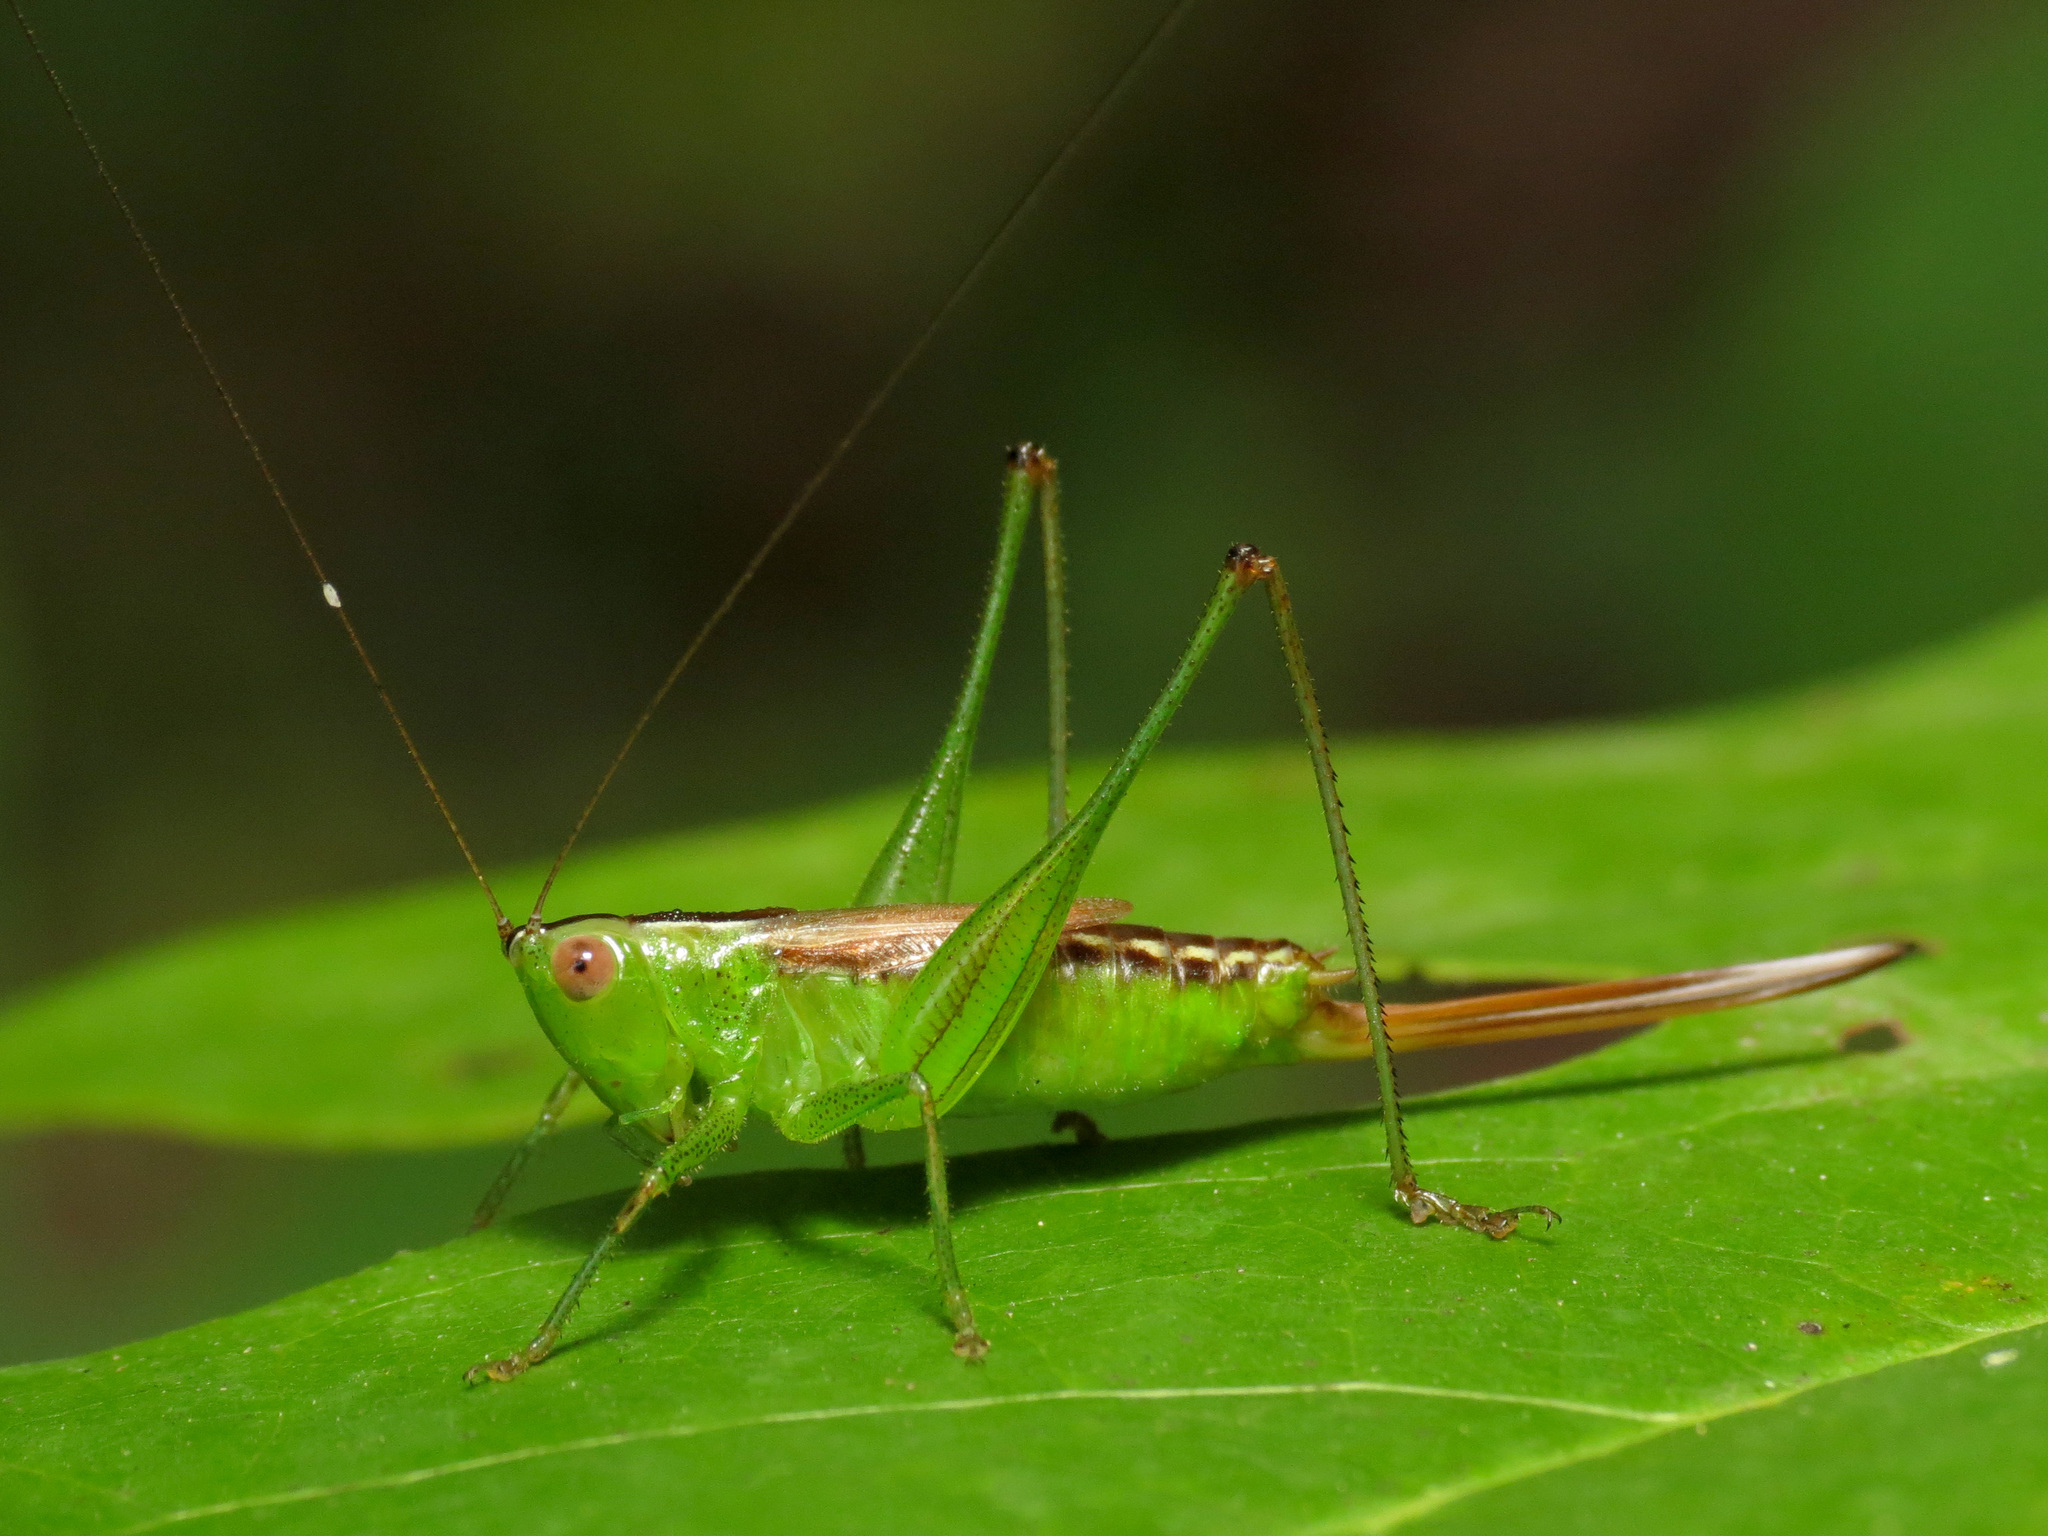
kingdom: Animalia
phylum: Arthropoda
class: Insecta
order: Orthoptera
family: Tettigoniidae
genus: Conocephalus
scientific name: Conocephalus brevipennis
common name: Short-winged meadow katydid
